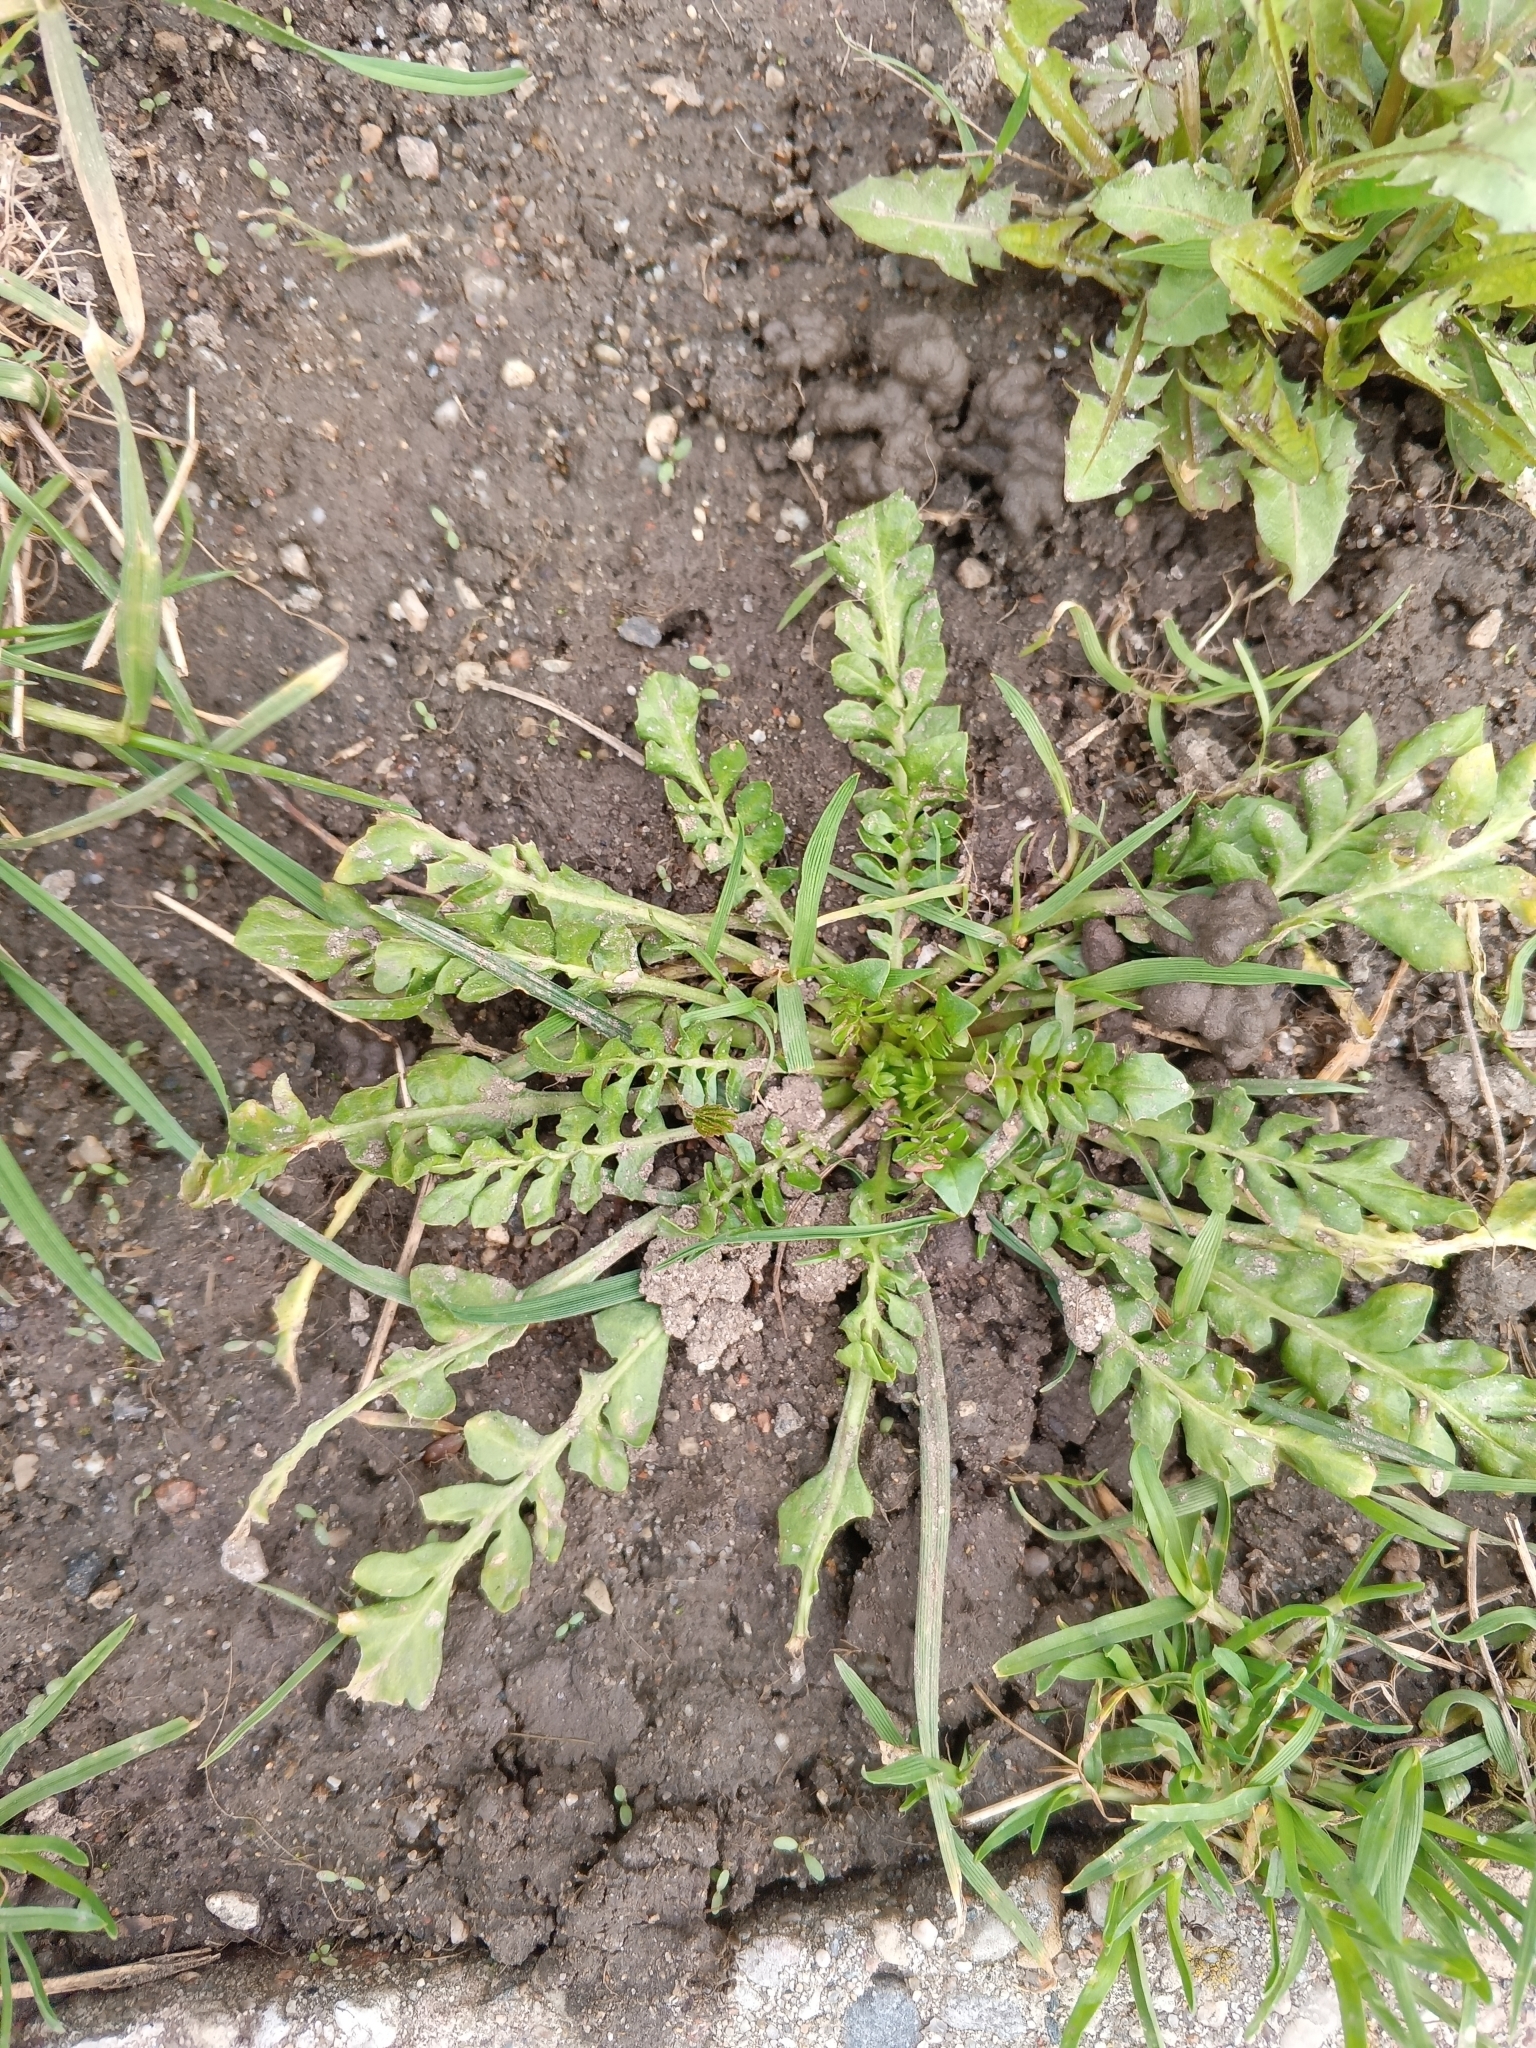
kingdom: Plantae
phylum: Tracheophyta
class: Magnoliopsida
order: Brassicales
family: Brassicaceae
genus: Capsella
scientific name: Capsella bursa-pastoris
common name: Shepherd's purse
